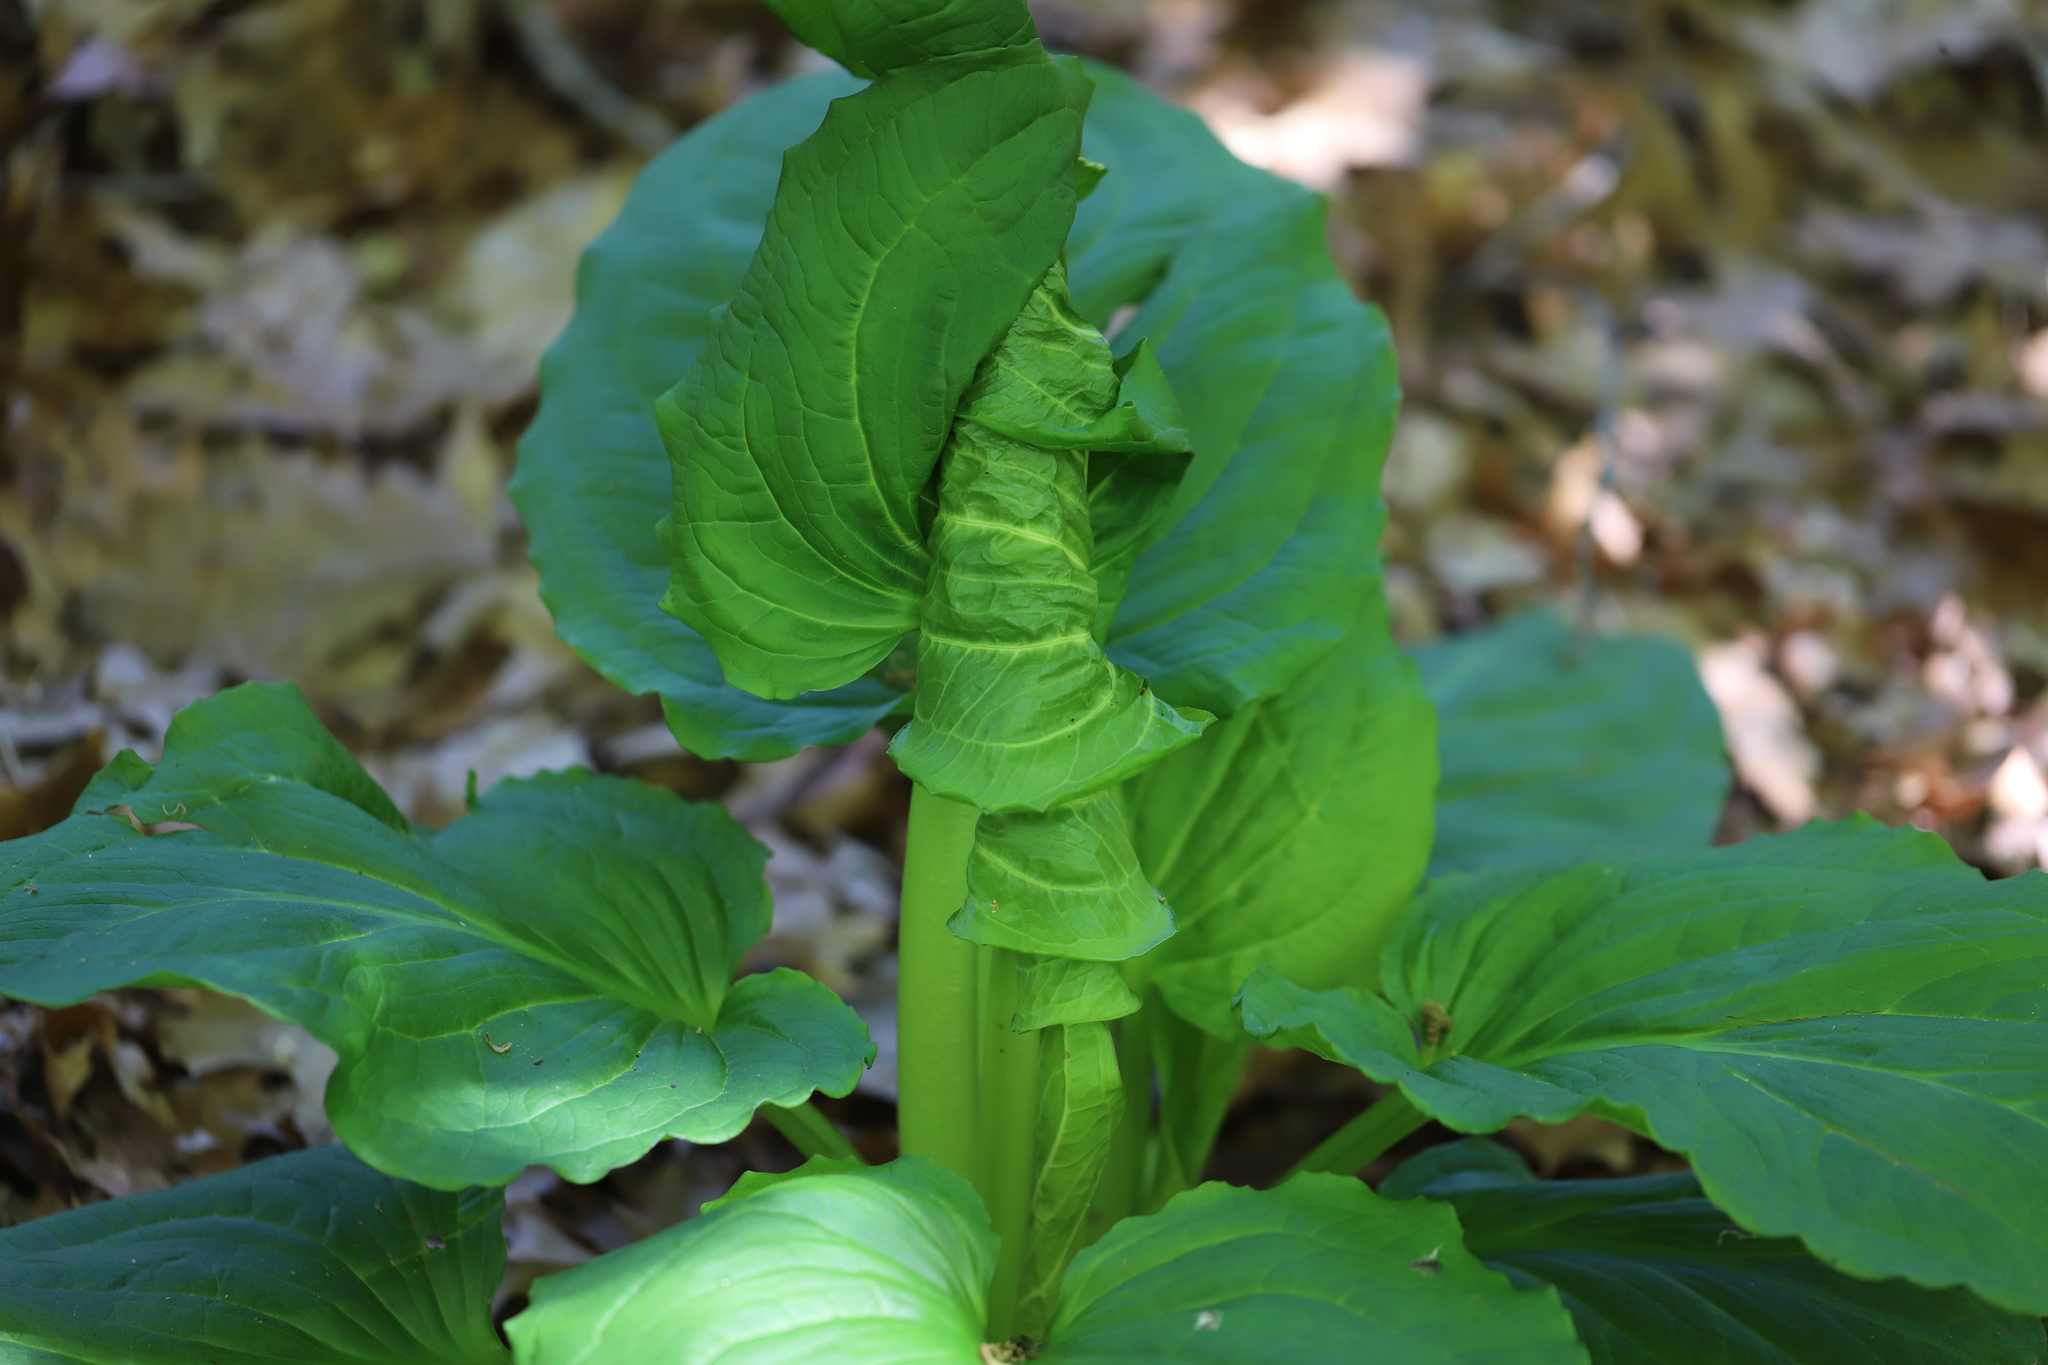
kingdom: Plantae
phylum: Tracheophyta
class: Liliopsida
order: Alismatales
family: Araceae
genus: Symplocarpus
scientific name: Symplocarpus foetidus
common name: Eastern skunk cabbage
